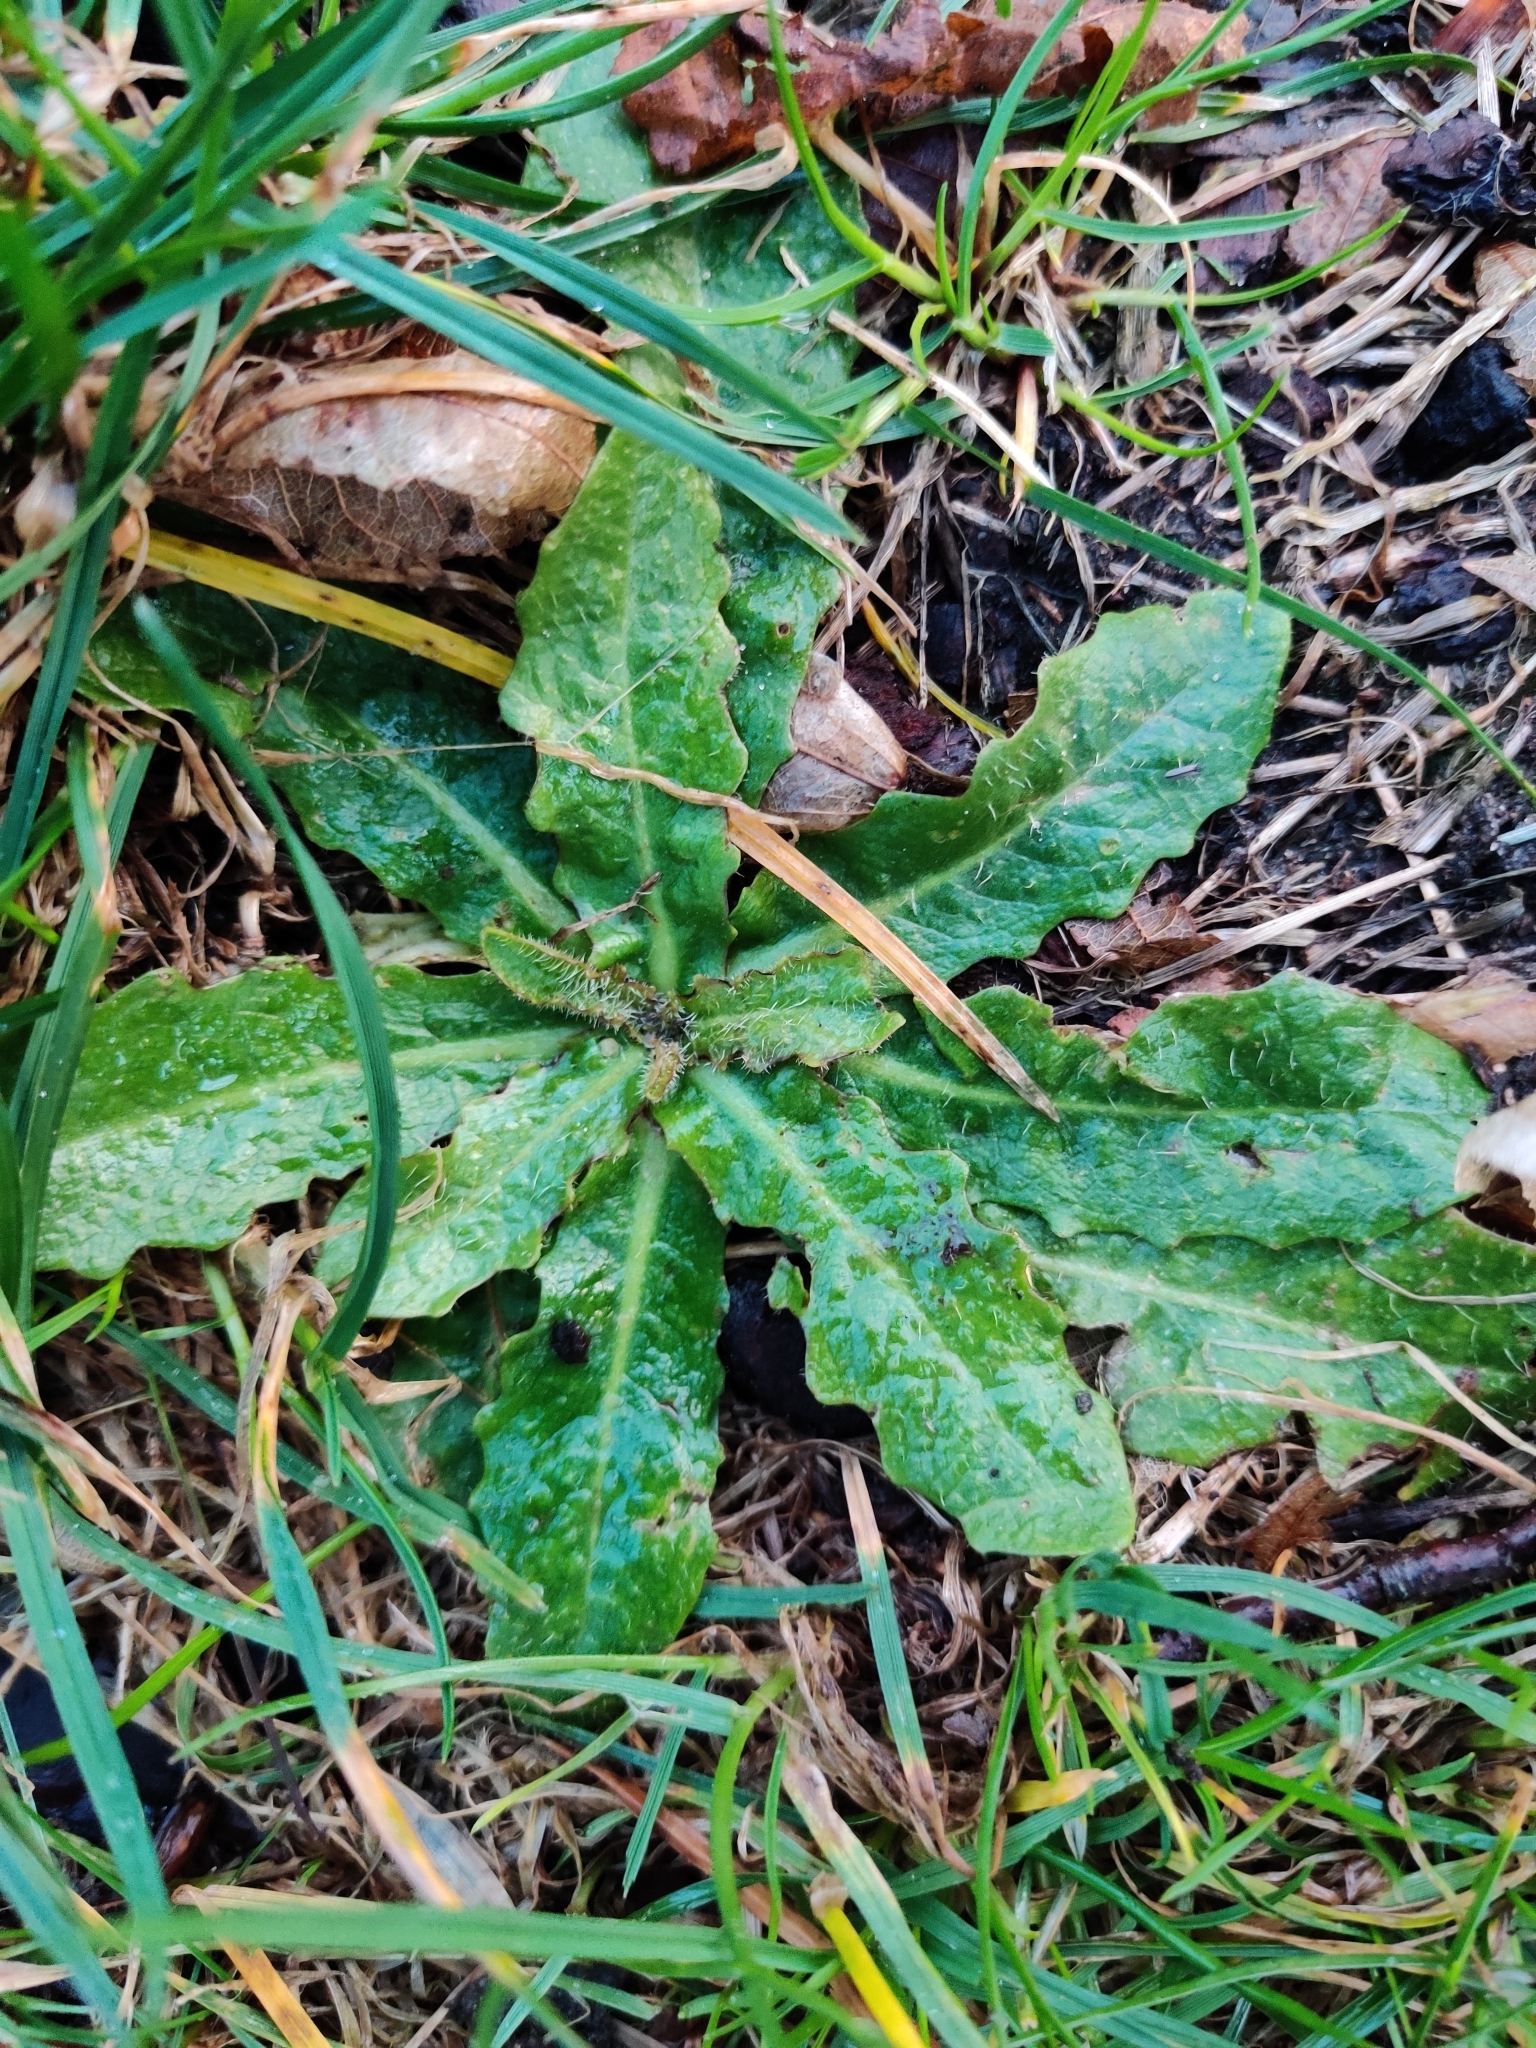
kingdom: Plantae
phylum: Tracheophyta
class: Magnoliopsida
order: Asterales
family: Asteraceae
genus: Hypochaeris
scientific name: Hypochaeris radicata
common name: Flatweed
